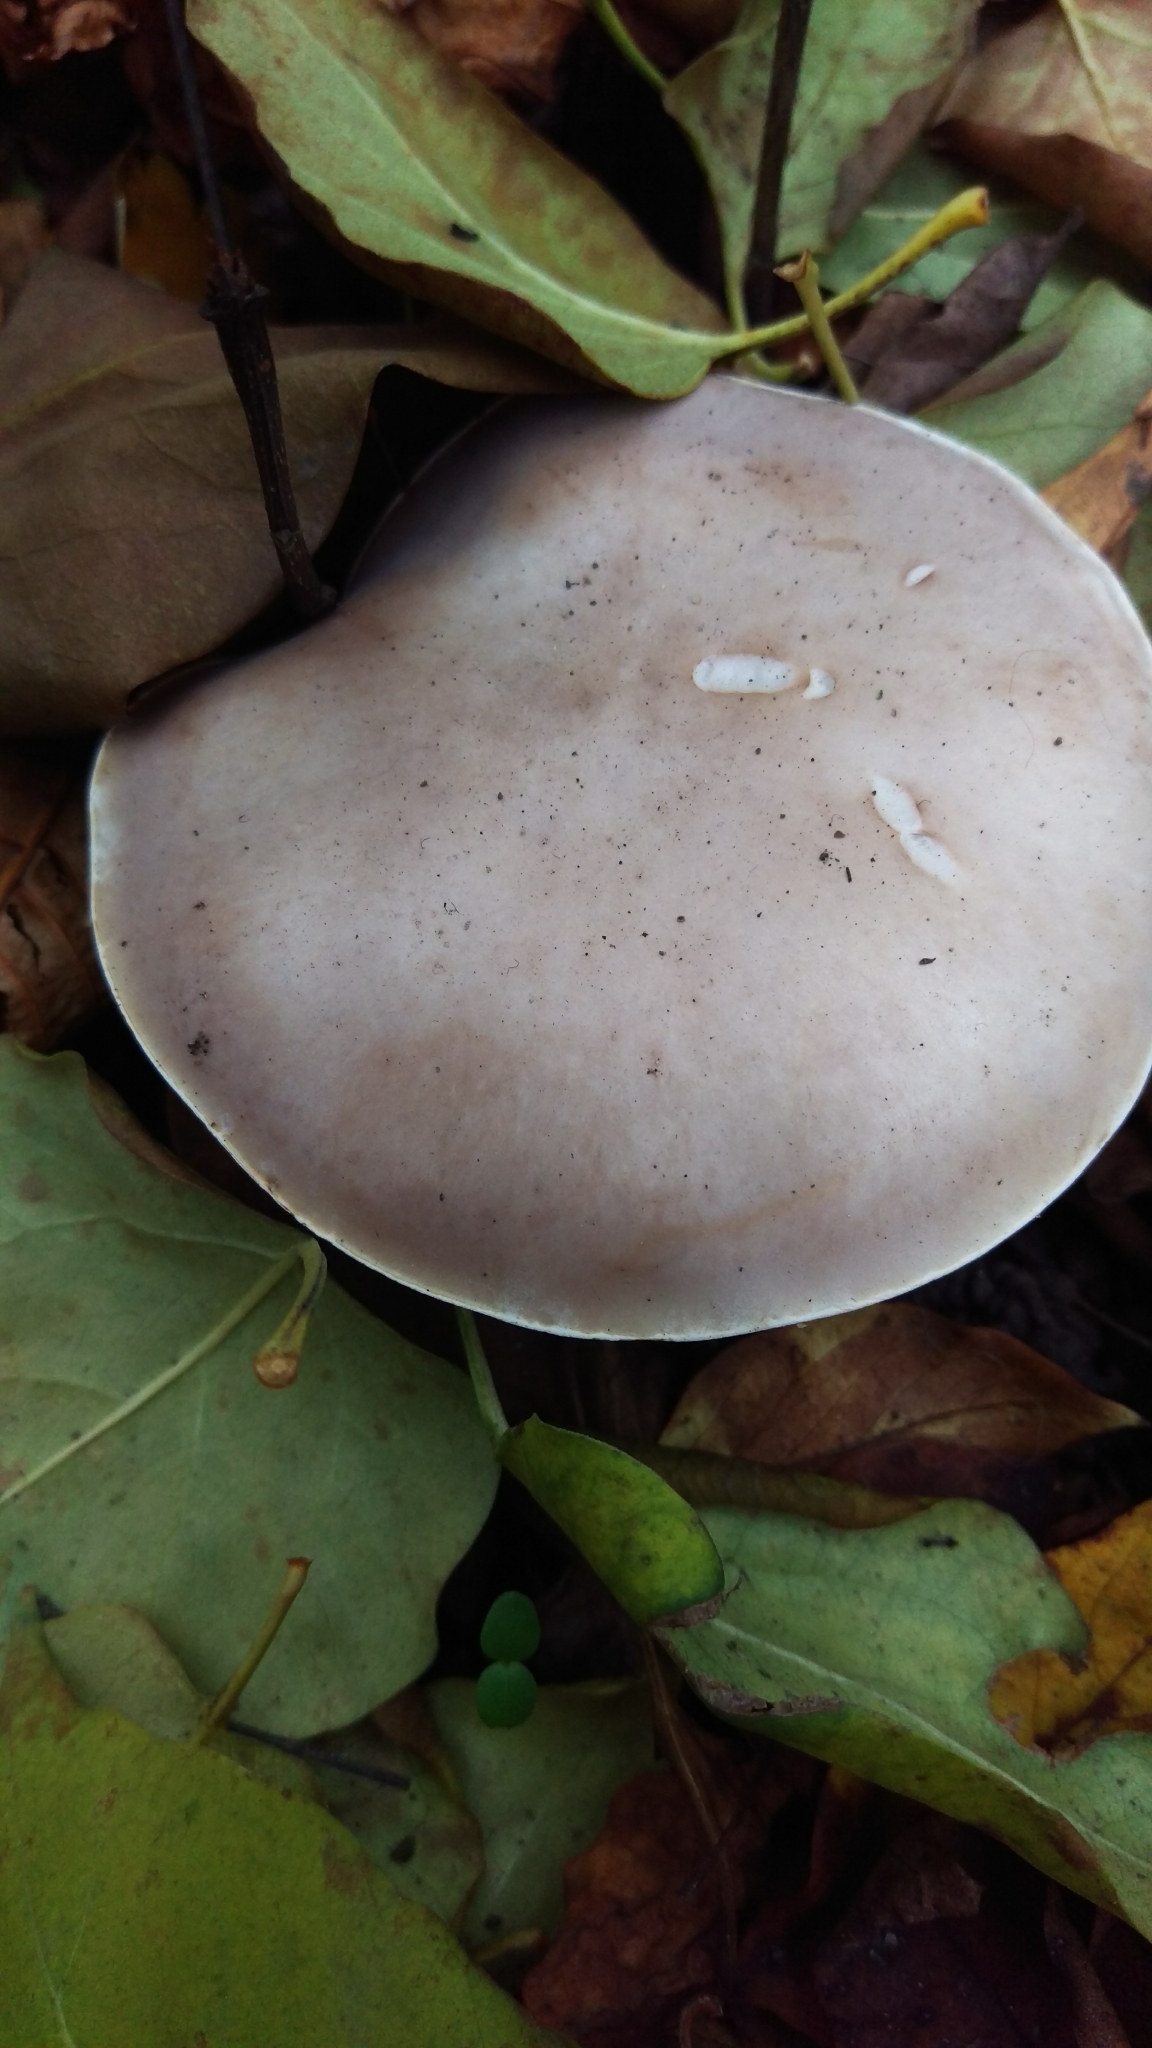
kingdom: Fungi
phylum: Basidiomycota
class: Agaricomycetes
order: Agaricales
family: Tricholomataceae
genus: Collybia
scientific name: Collybia
